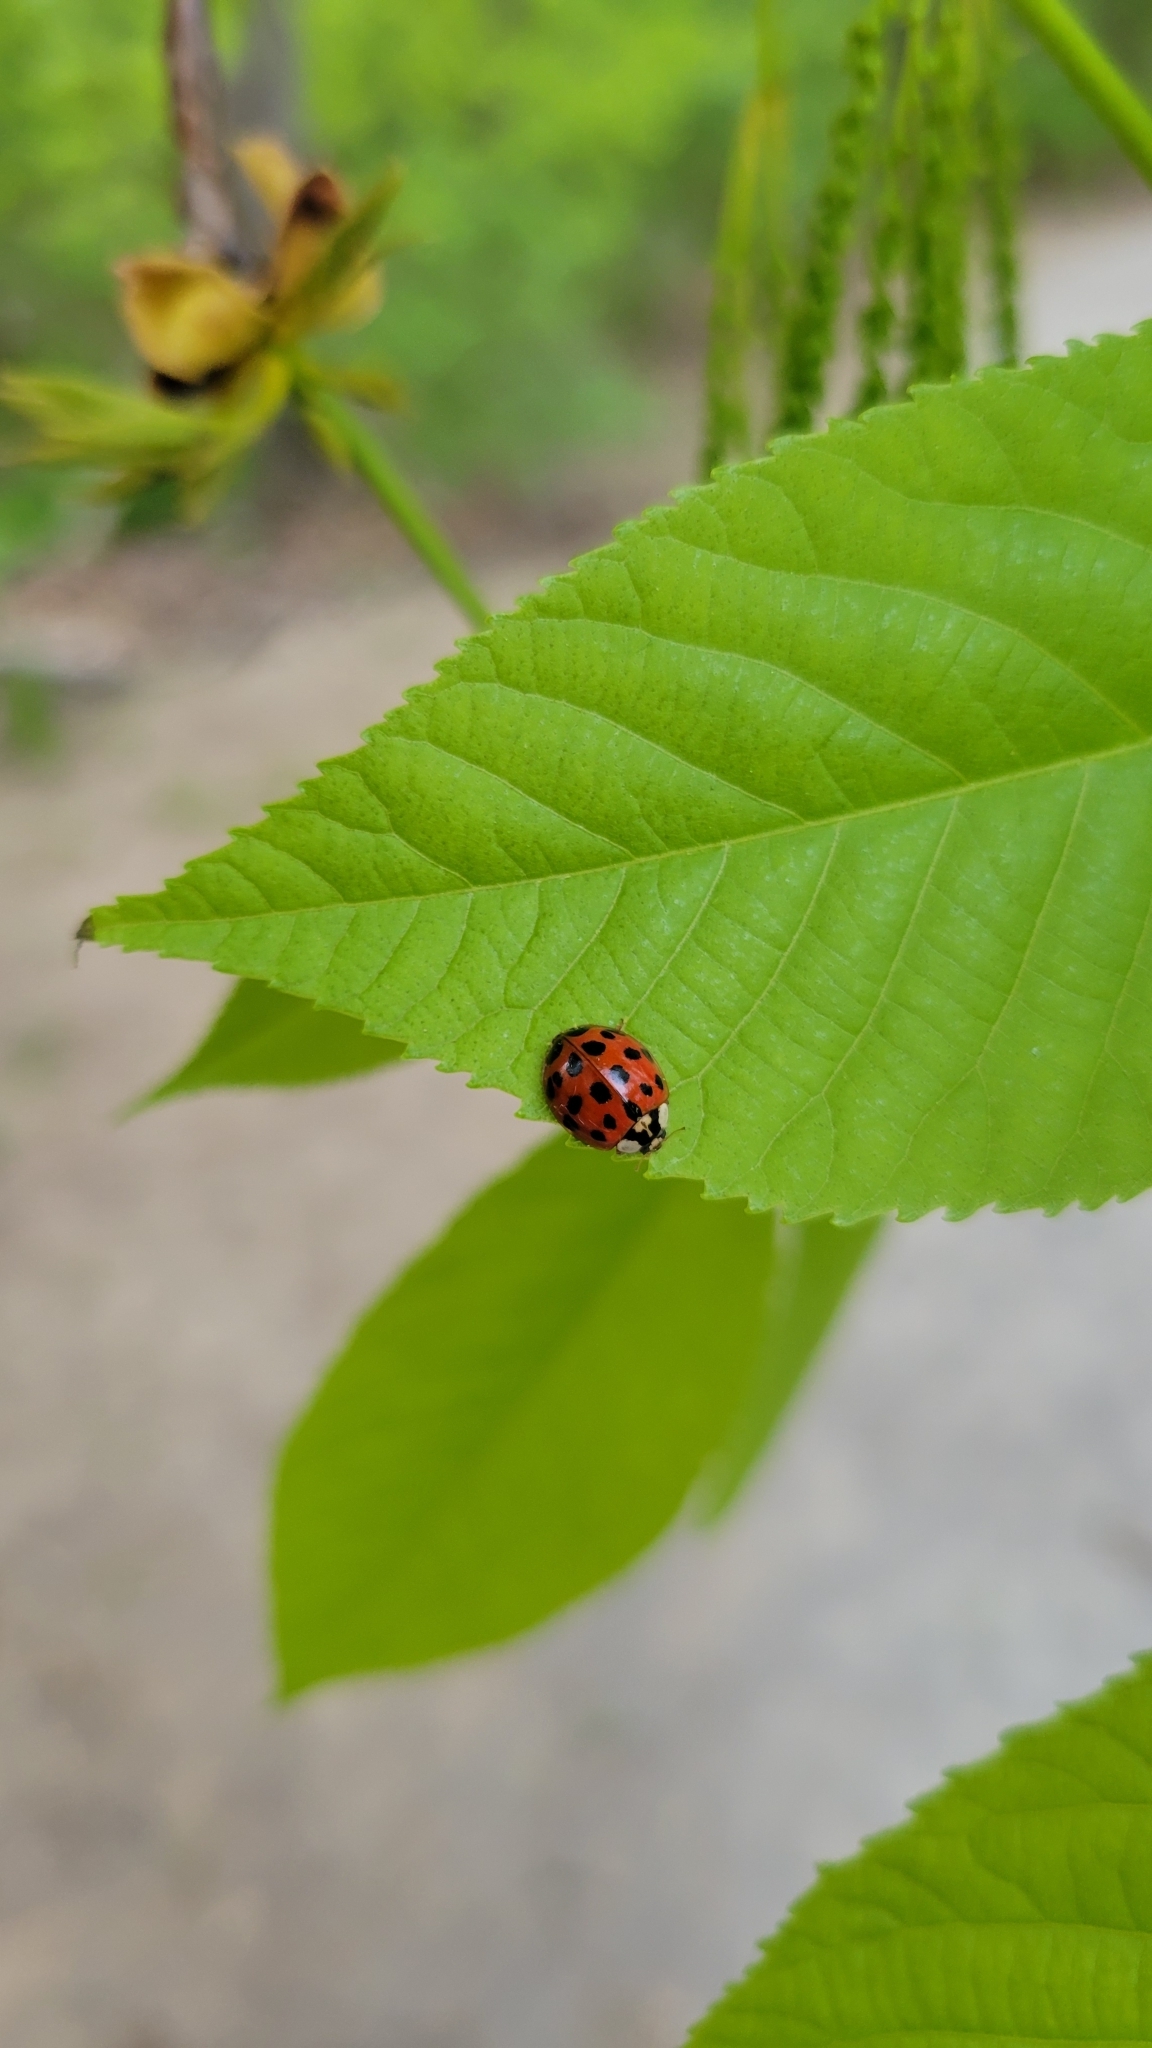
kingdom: Animalia
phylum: Arthropoda
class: Insecta
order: Coleoptera
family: Coccinellidae
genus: Harmonia
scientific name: Harmonia axyridis
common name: Harlequin ladybird
